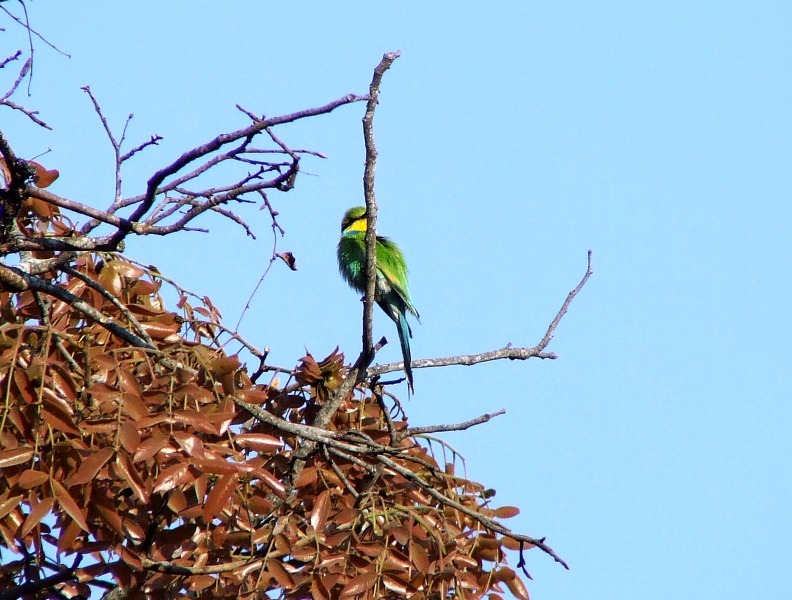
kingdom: Animalia
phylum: Chordata
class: Aves
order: Coraciiformes
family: Meropidae
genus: Merops
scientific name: Merops hirundineus
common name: Swallow-tailed bee-eater
